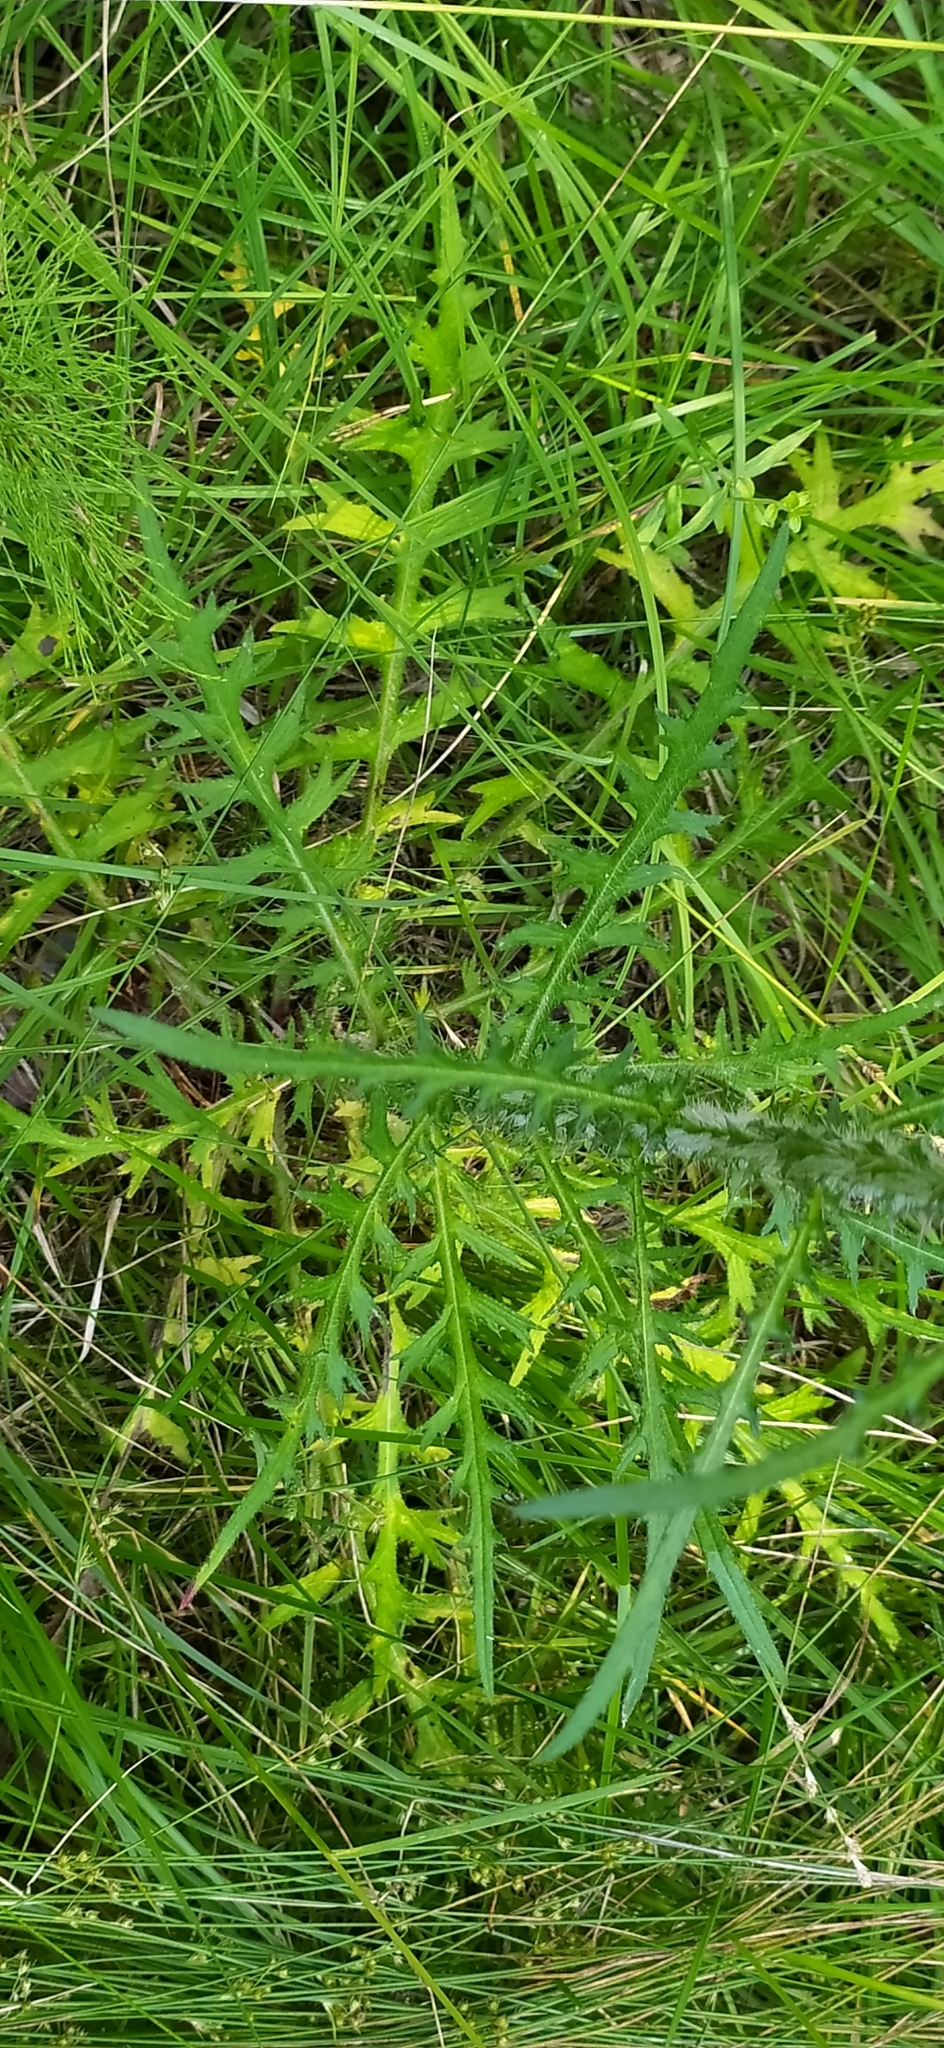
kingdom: Plantae
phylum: Tracheophyta
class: Magnoliopsida
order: Asterales
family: Asteraceae
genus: Cirsium
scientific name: Cirsium palustre
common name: Marsh thistle
